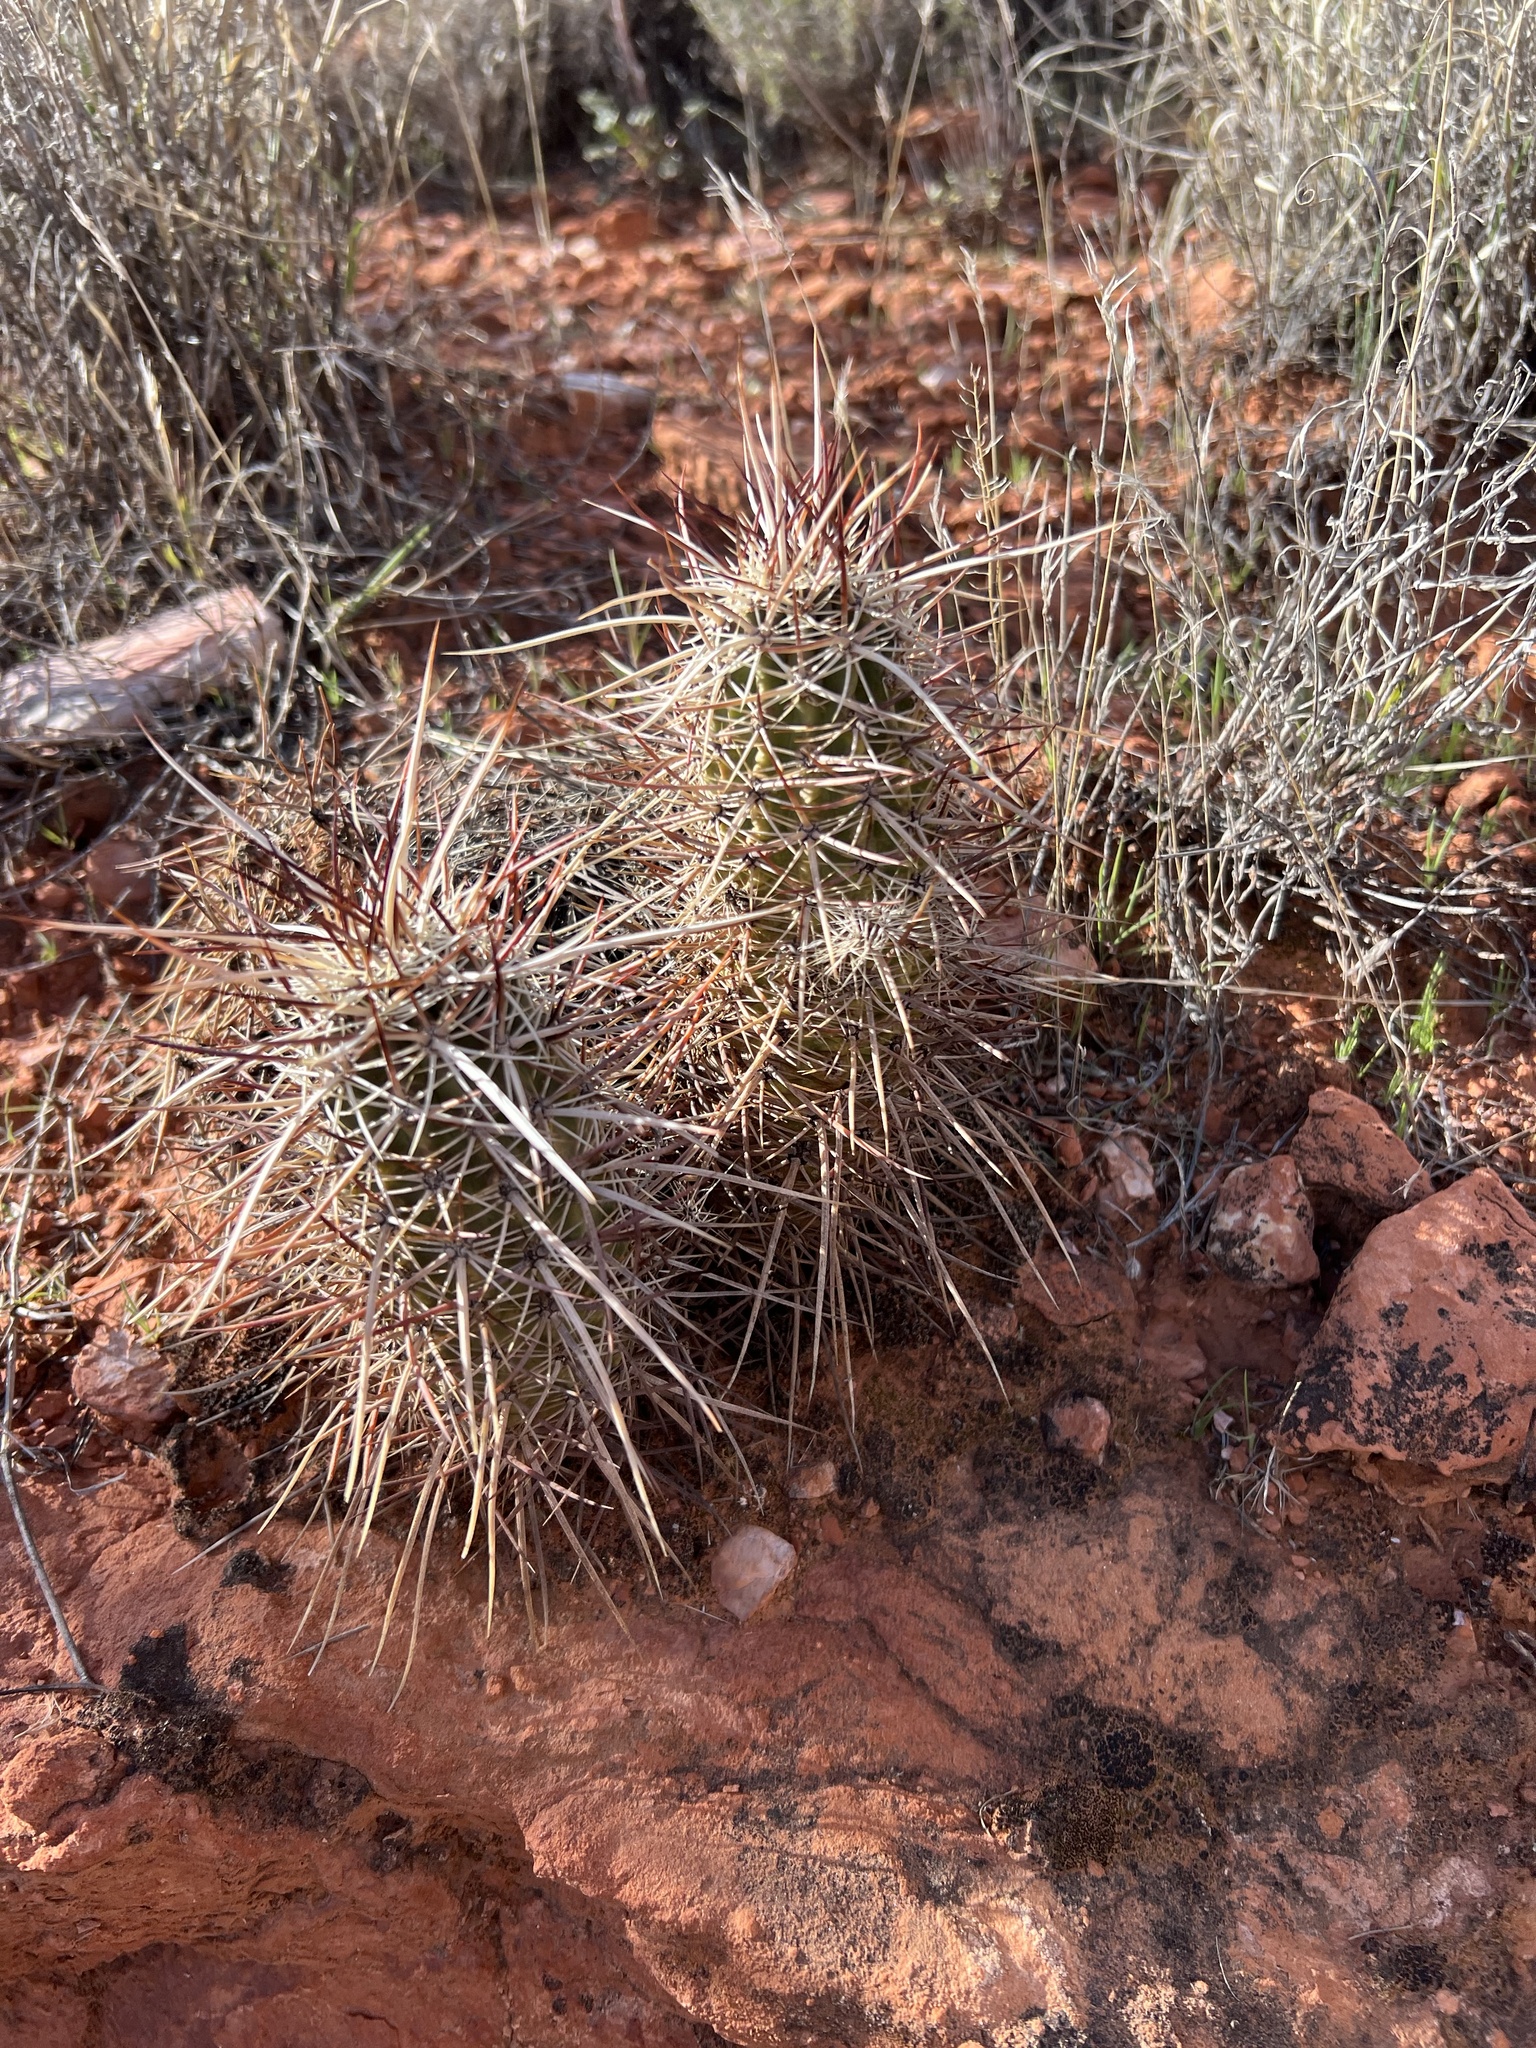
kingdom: Plantae
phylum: Tracheophyta
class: Magnoliopsida
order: Caryophyllales
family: Cactaceae
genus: Echinocereus
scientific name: Echinocereus engelmannii
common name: Engelmann's hedgehog cactus
